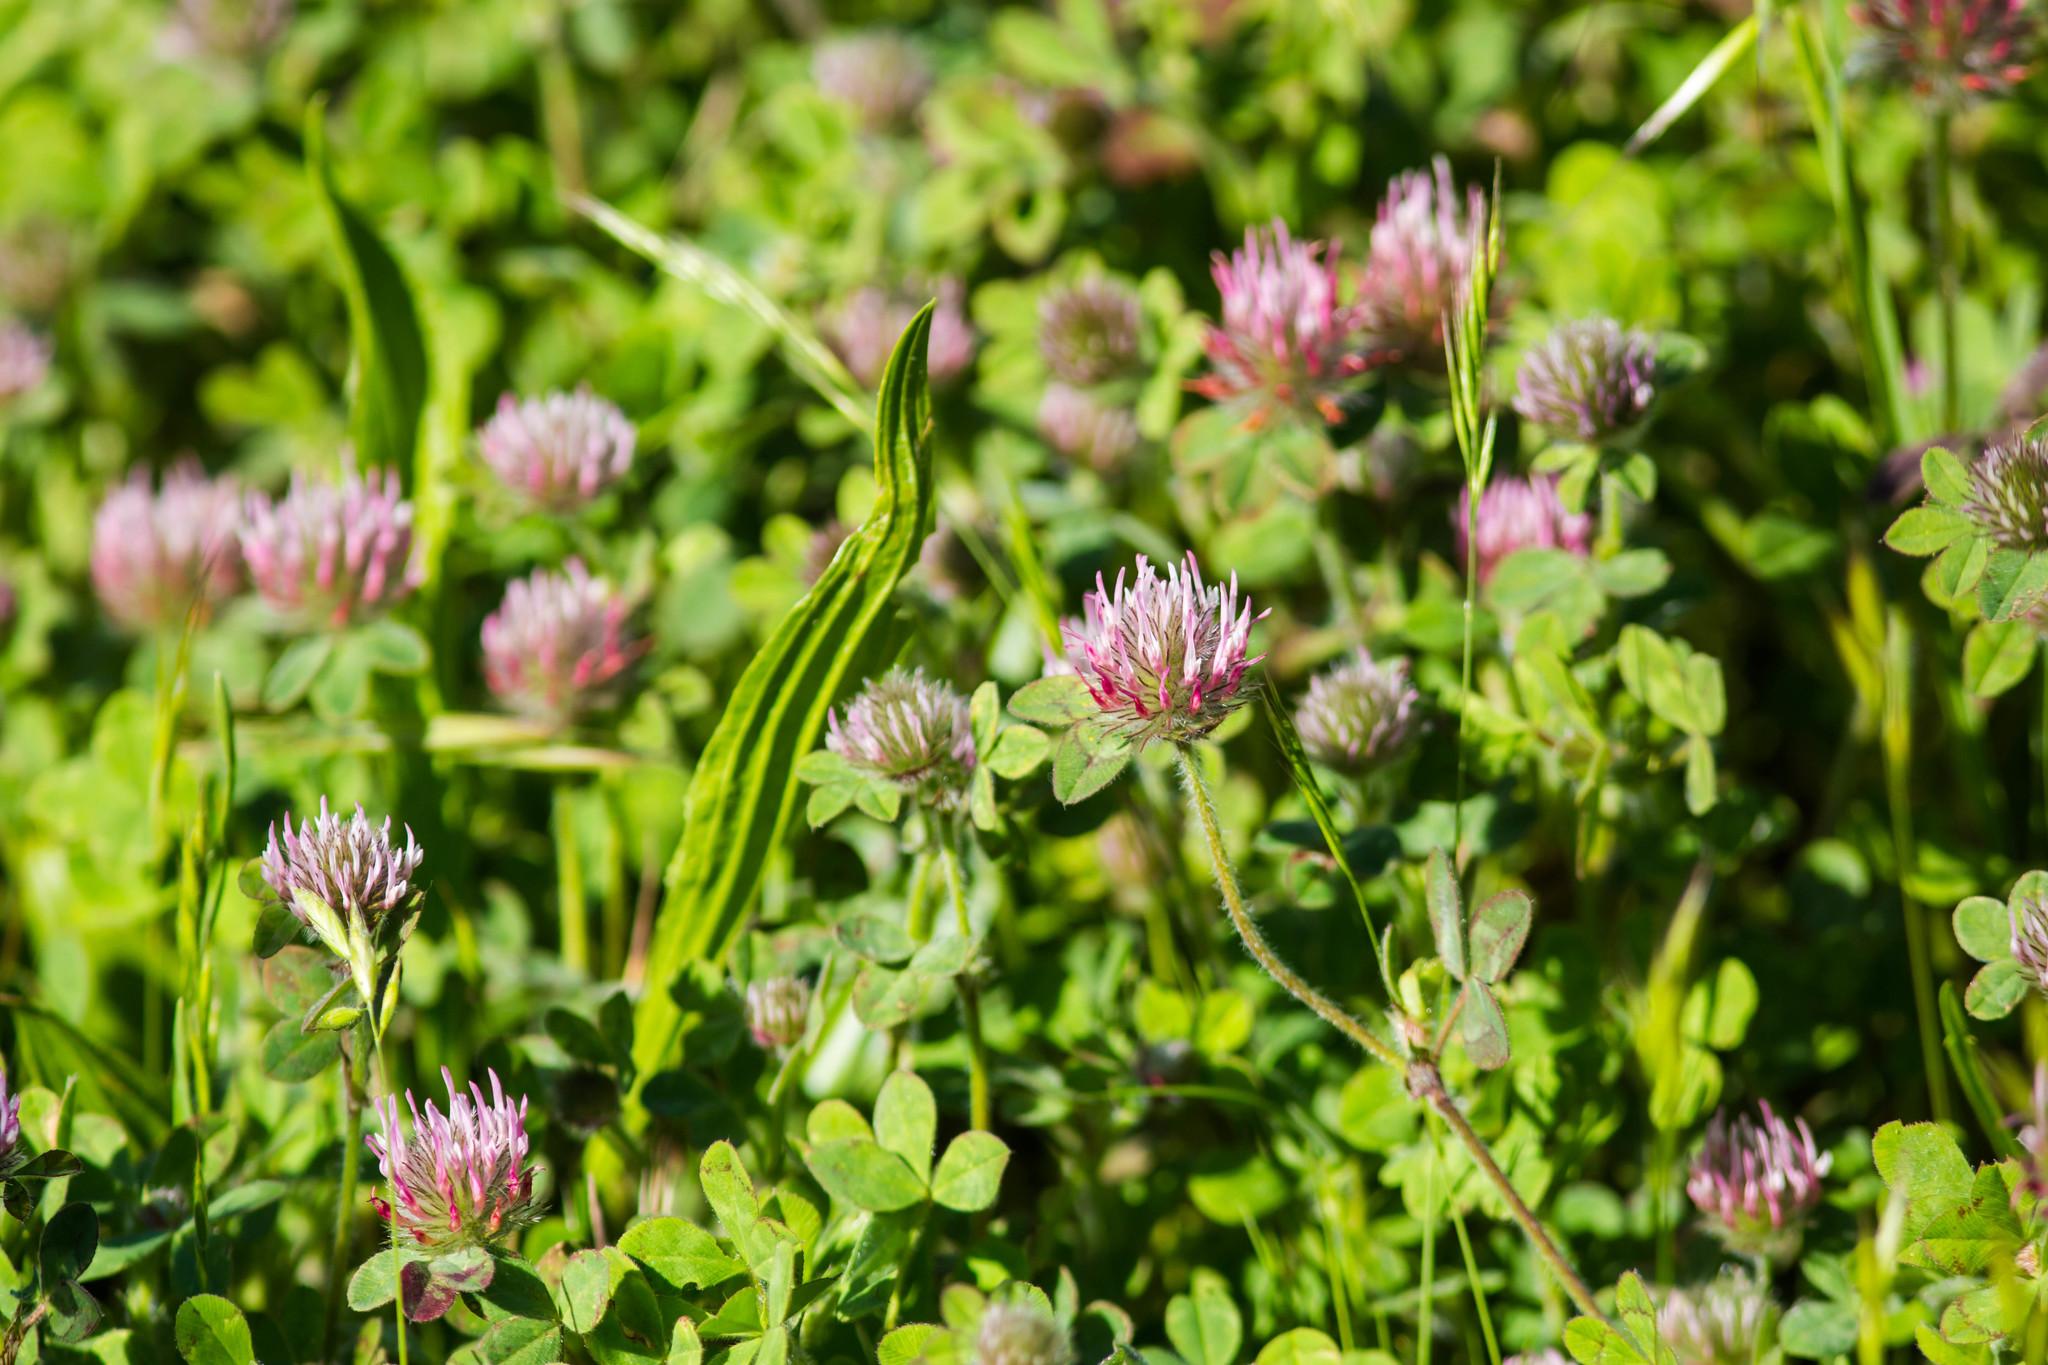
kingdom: Plantae
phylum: Tracheophyta
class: Magnoliopsida
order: Fabales
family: Fabaceae
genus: Trifolium
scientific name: Trifolium hirtum
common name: Rose clover
